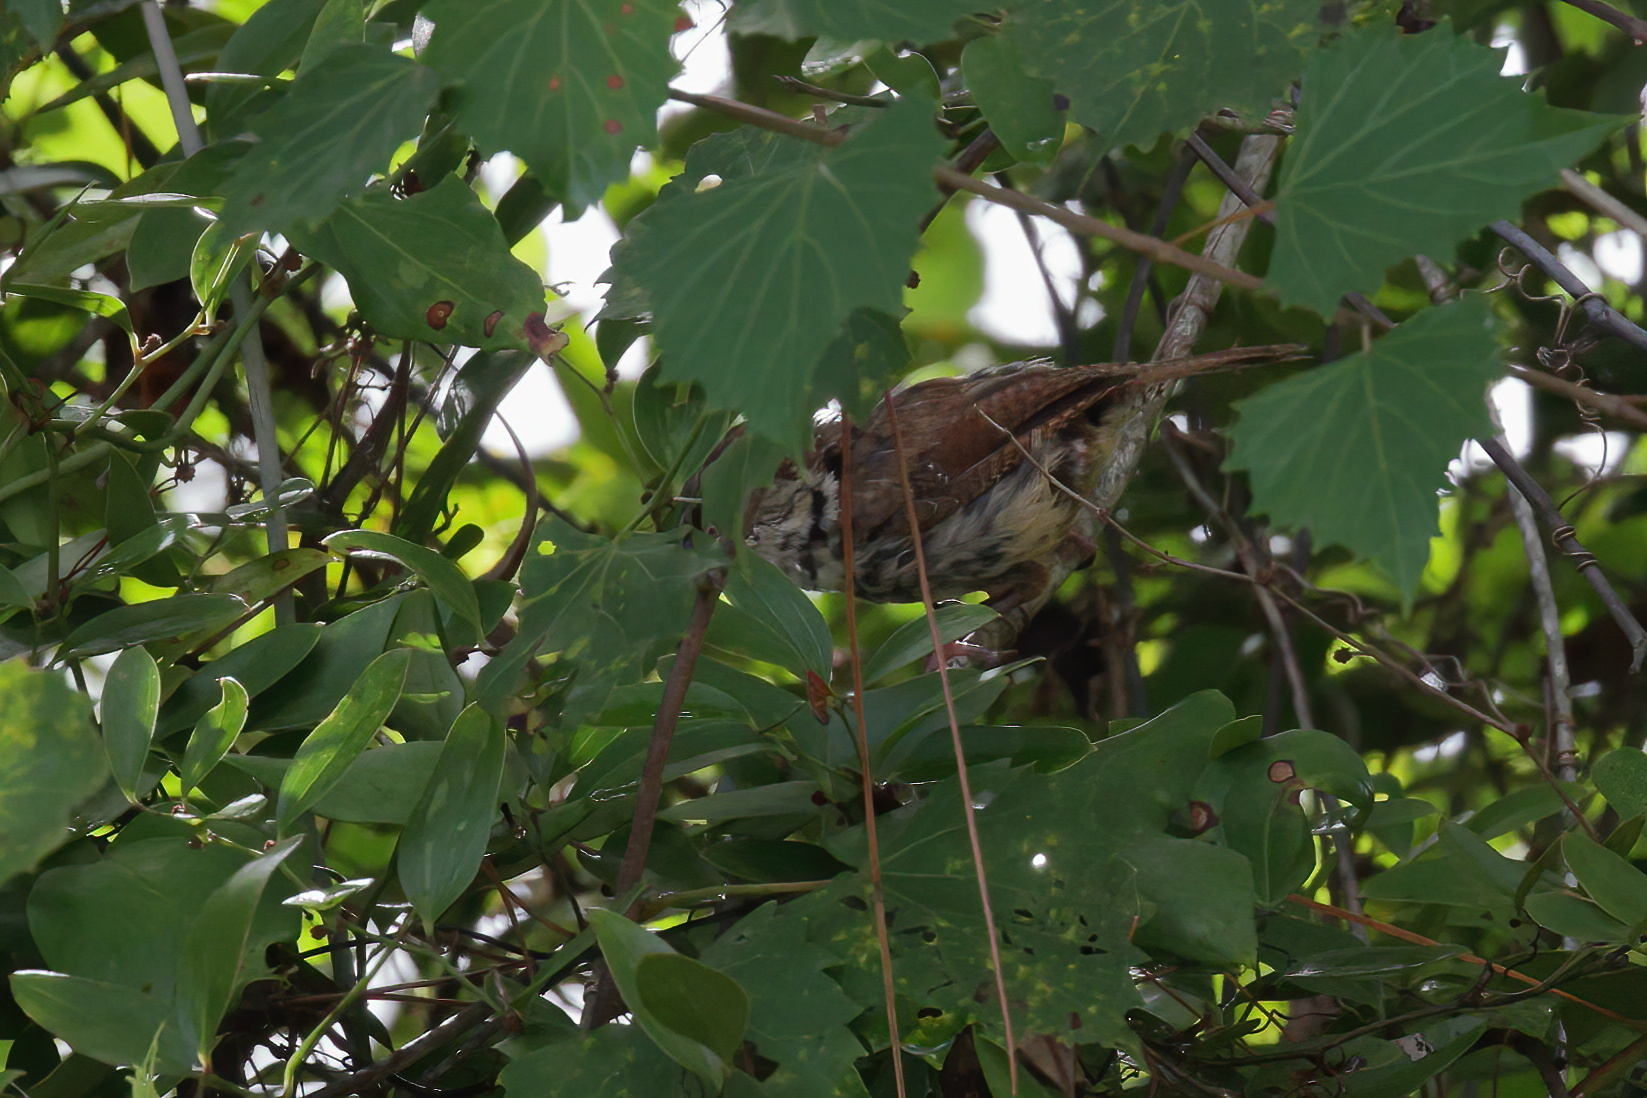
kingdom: Animalia
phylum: Chordata
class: Aves
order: Passeriformes
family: Troglodytidae
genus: Thryothorus
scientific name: Thryothorus ludovicianus
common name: Carolina wren
